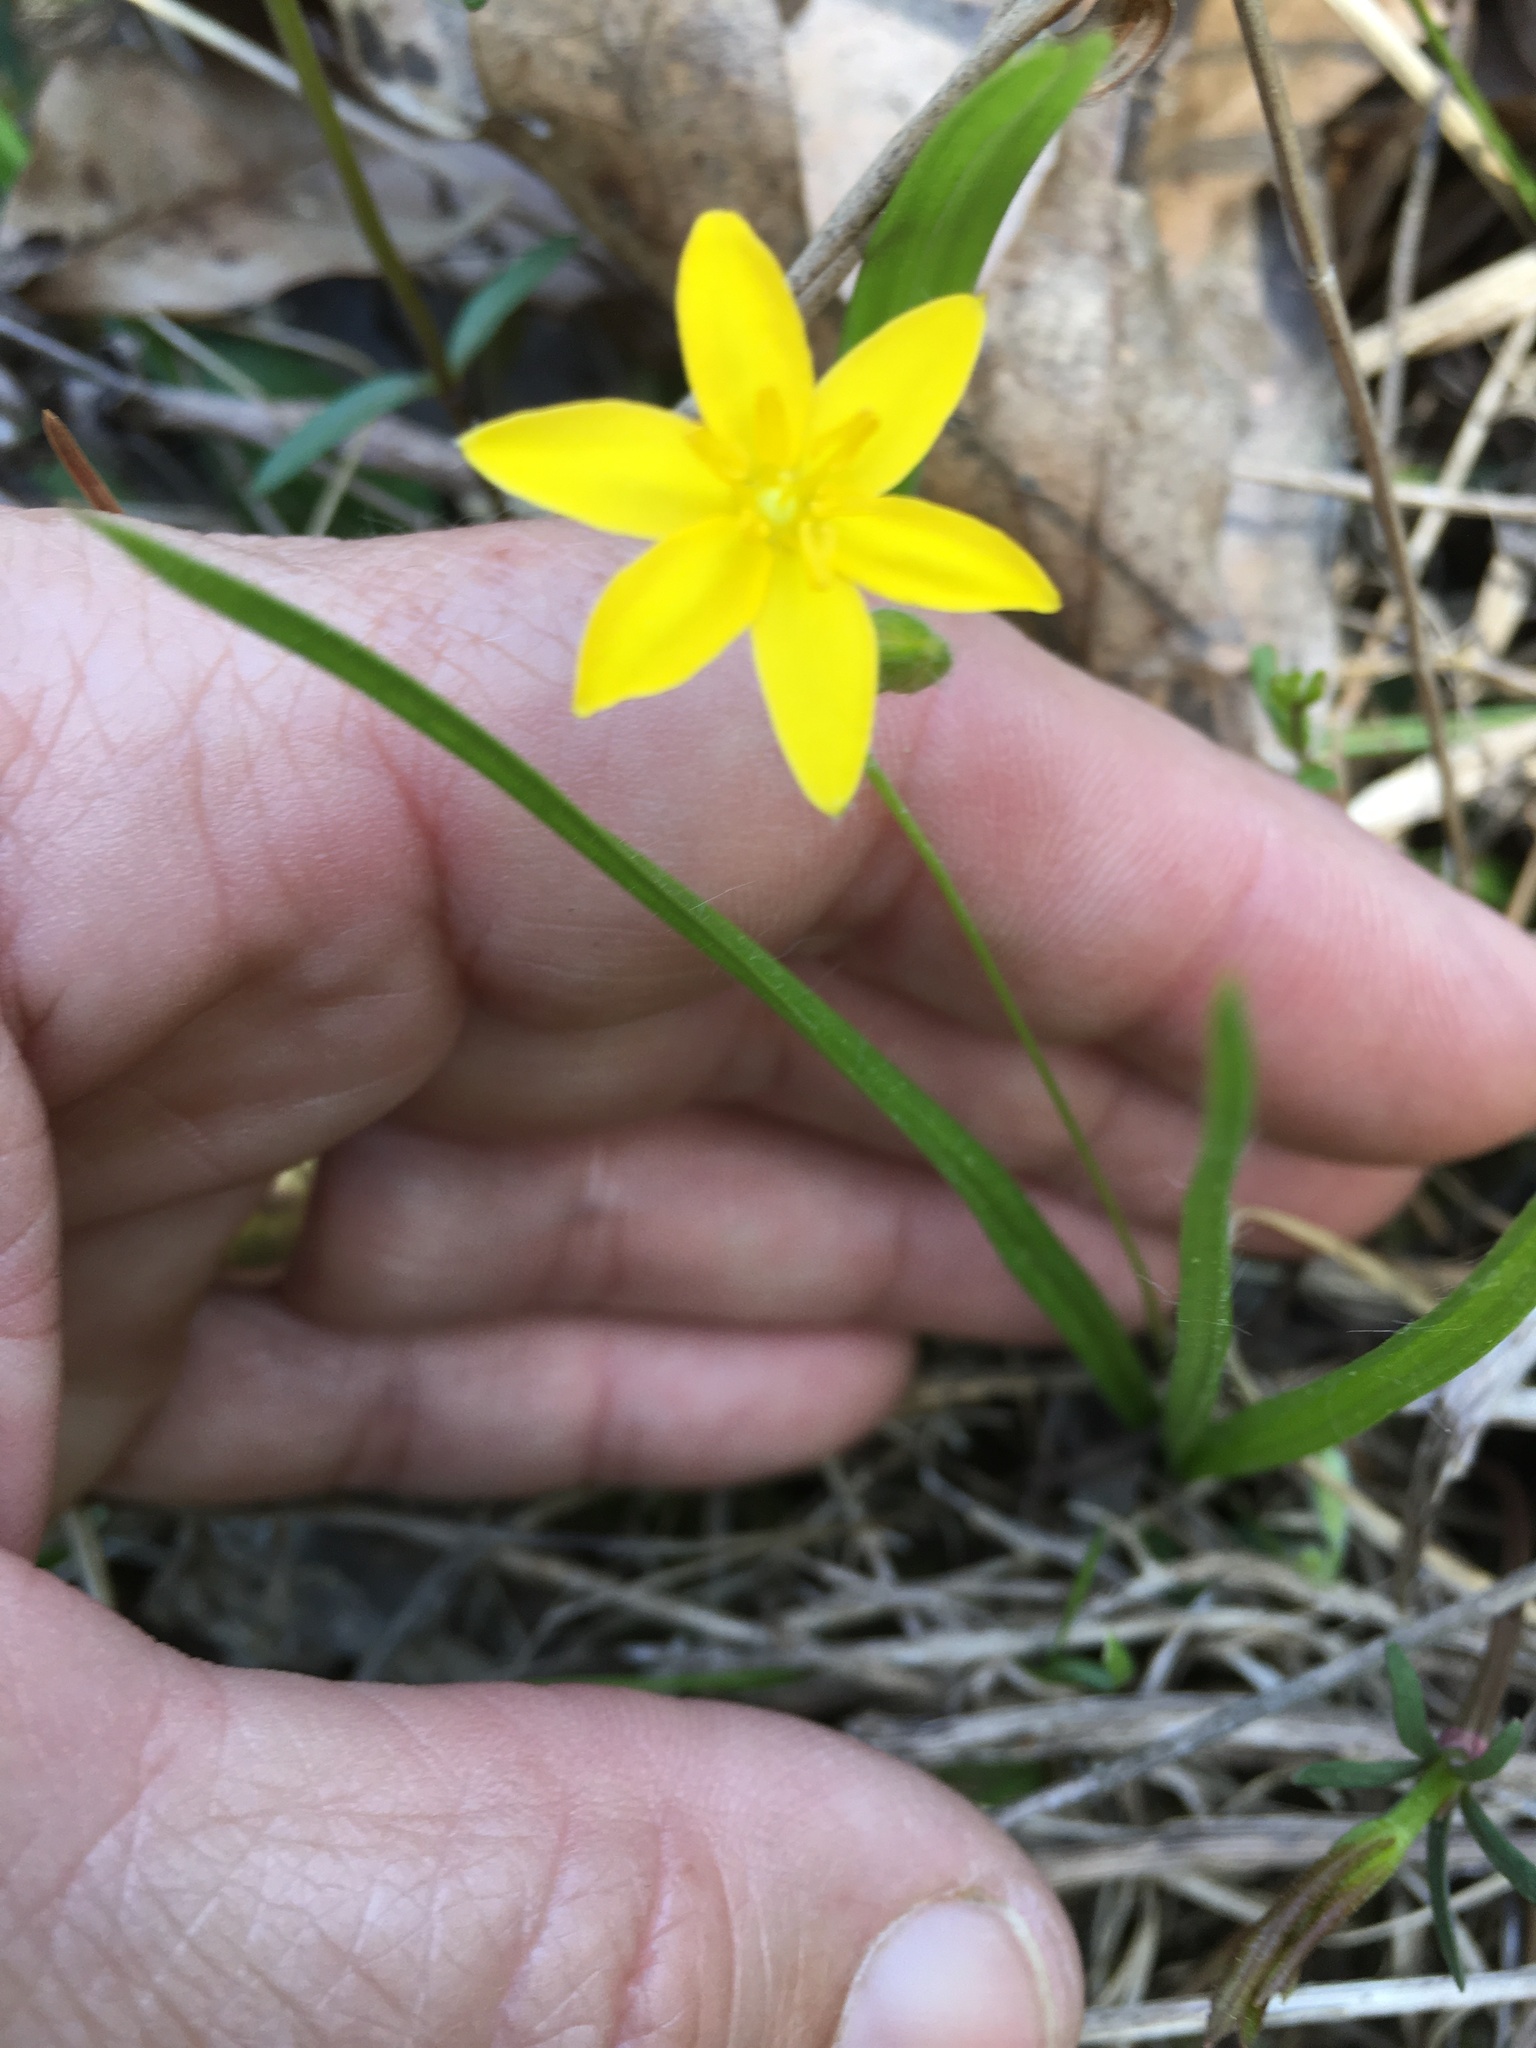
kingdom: Plantae
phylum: Tracheophyta
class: Liliopsida
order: Asparagales
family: Hypoxidaceae
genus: Hypoxis
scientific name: Hypoxis hirsuta
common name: Common goldstar
